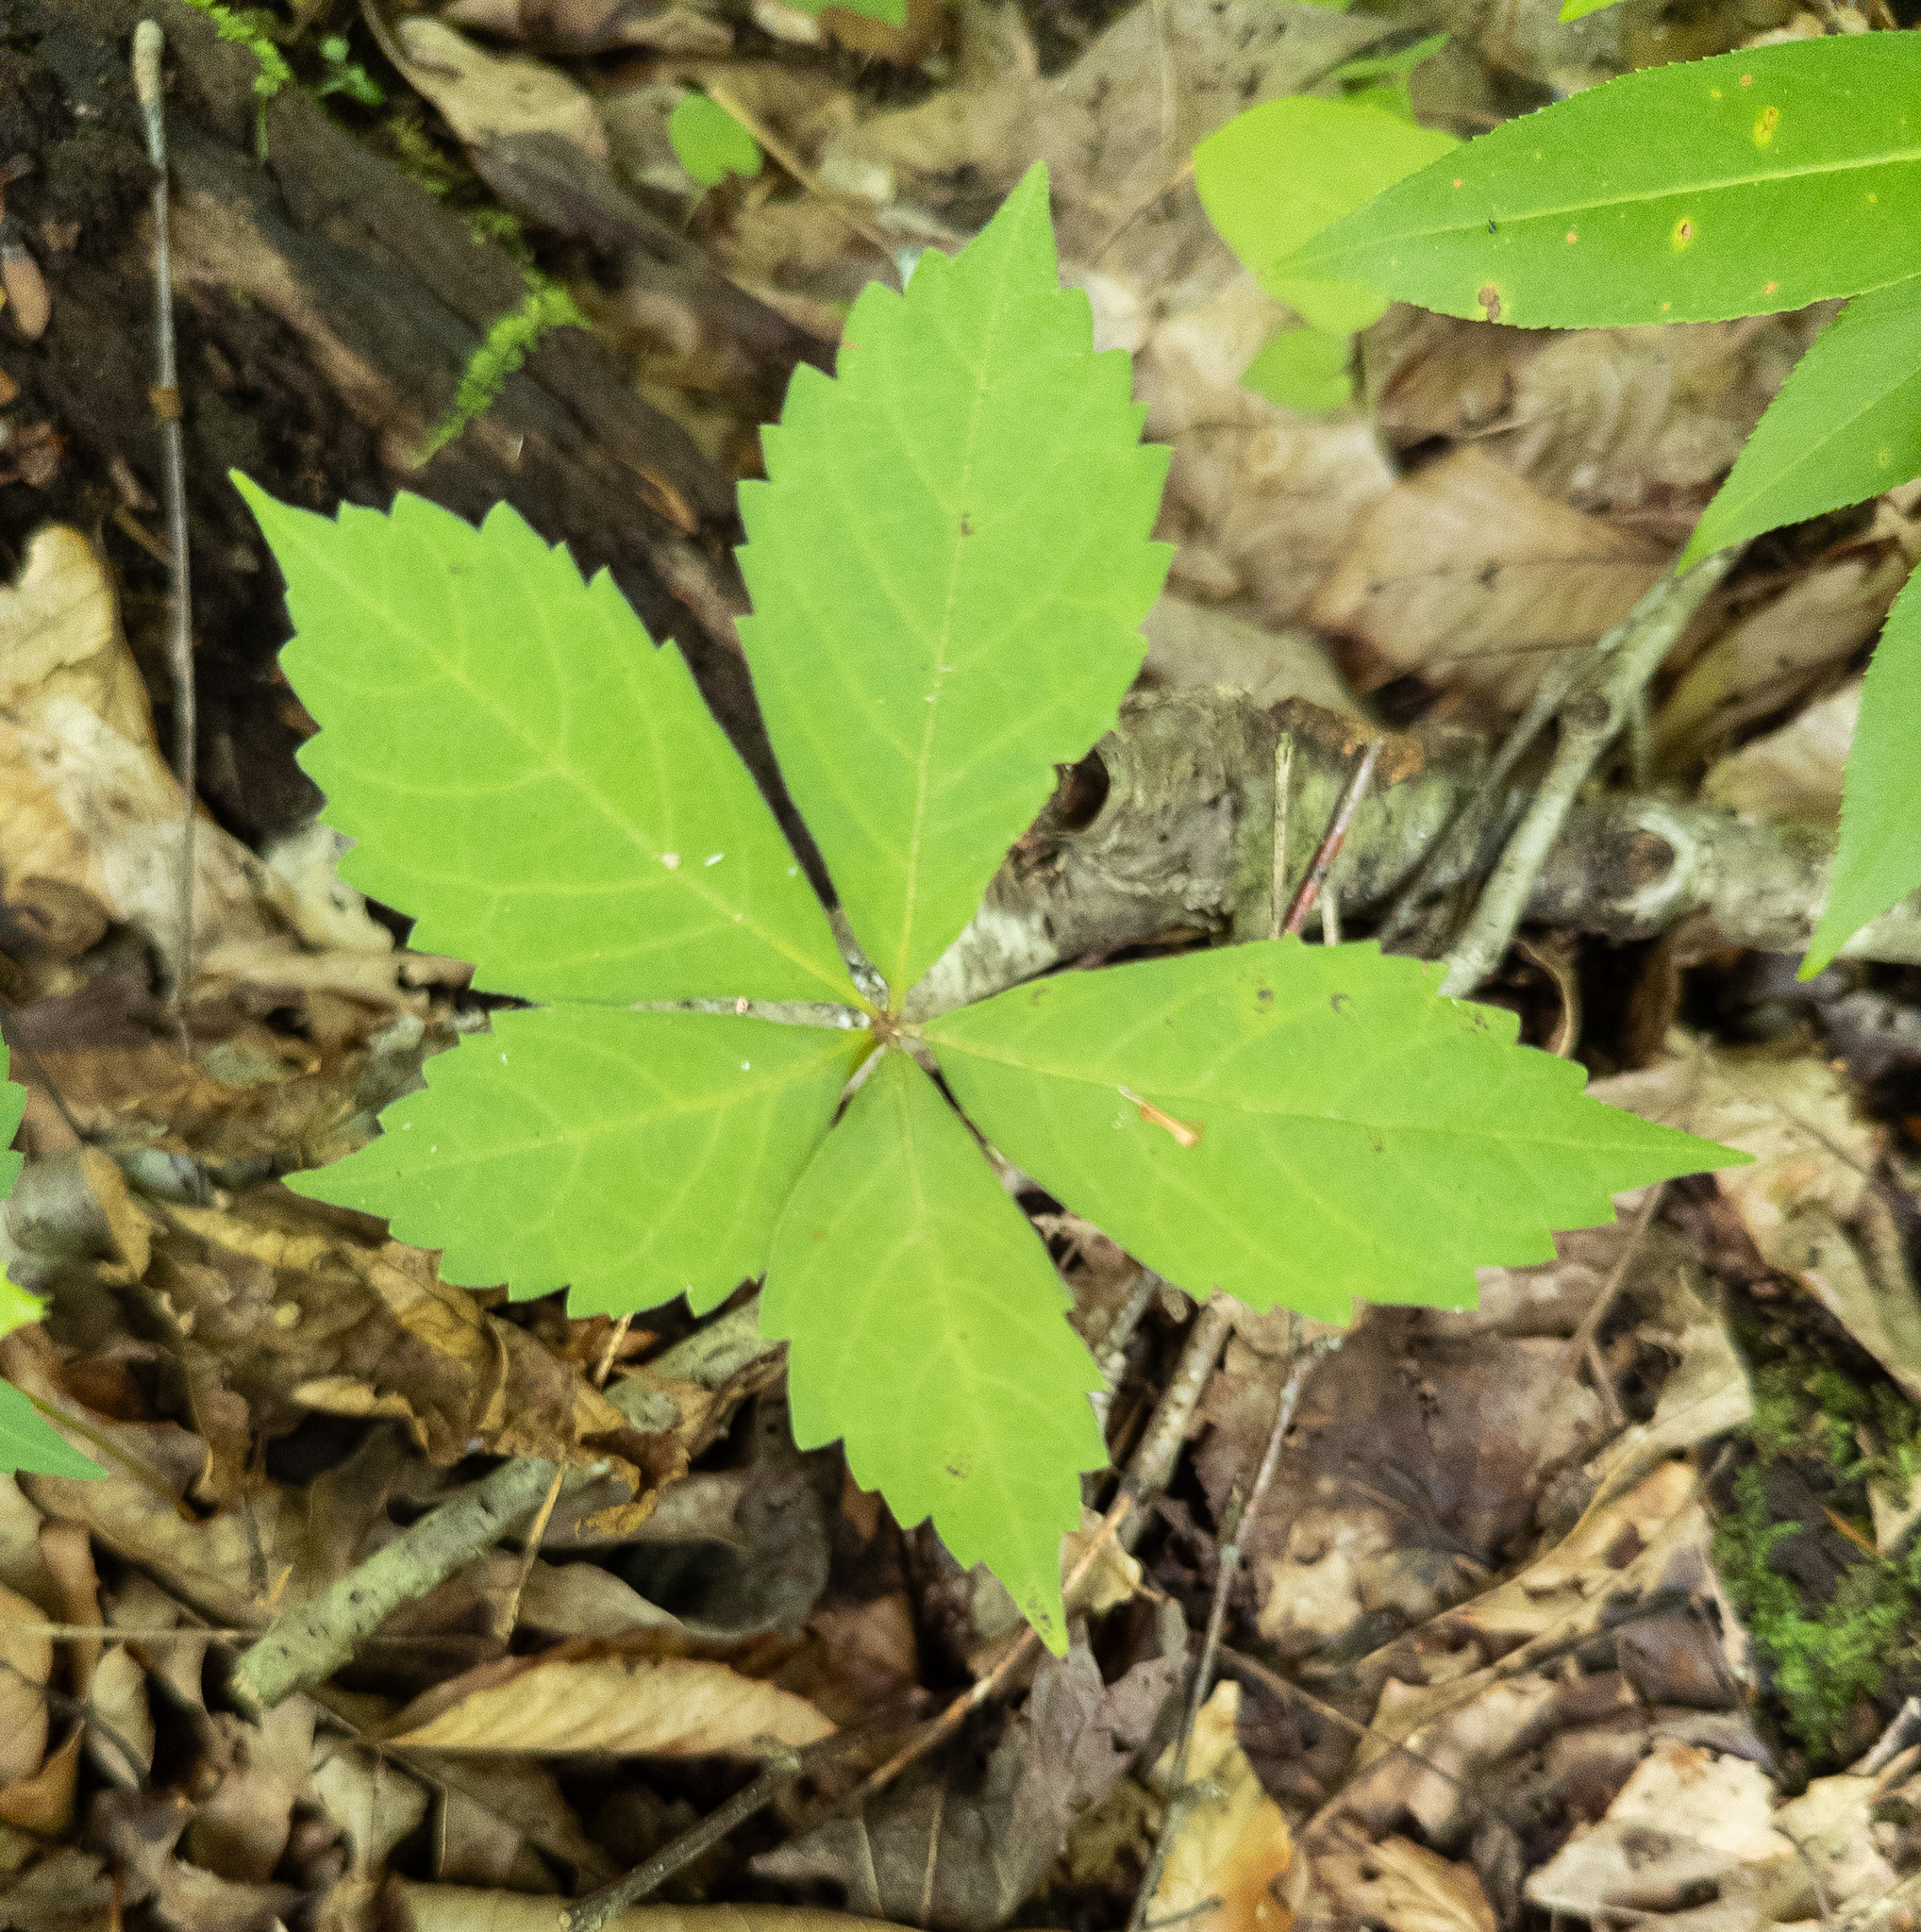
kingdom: Plantae
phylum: Tracheophyta
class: Magnoliopsida
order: Vitales
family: Vitaceae
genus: Parthenocissus
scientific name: Parthenocissus quinquefolia
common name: Virginia-creeper
